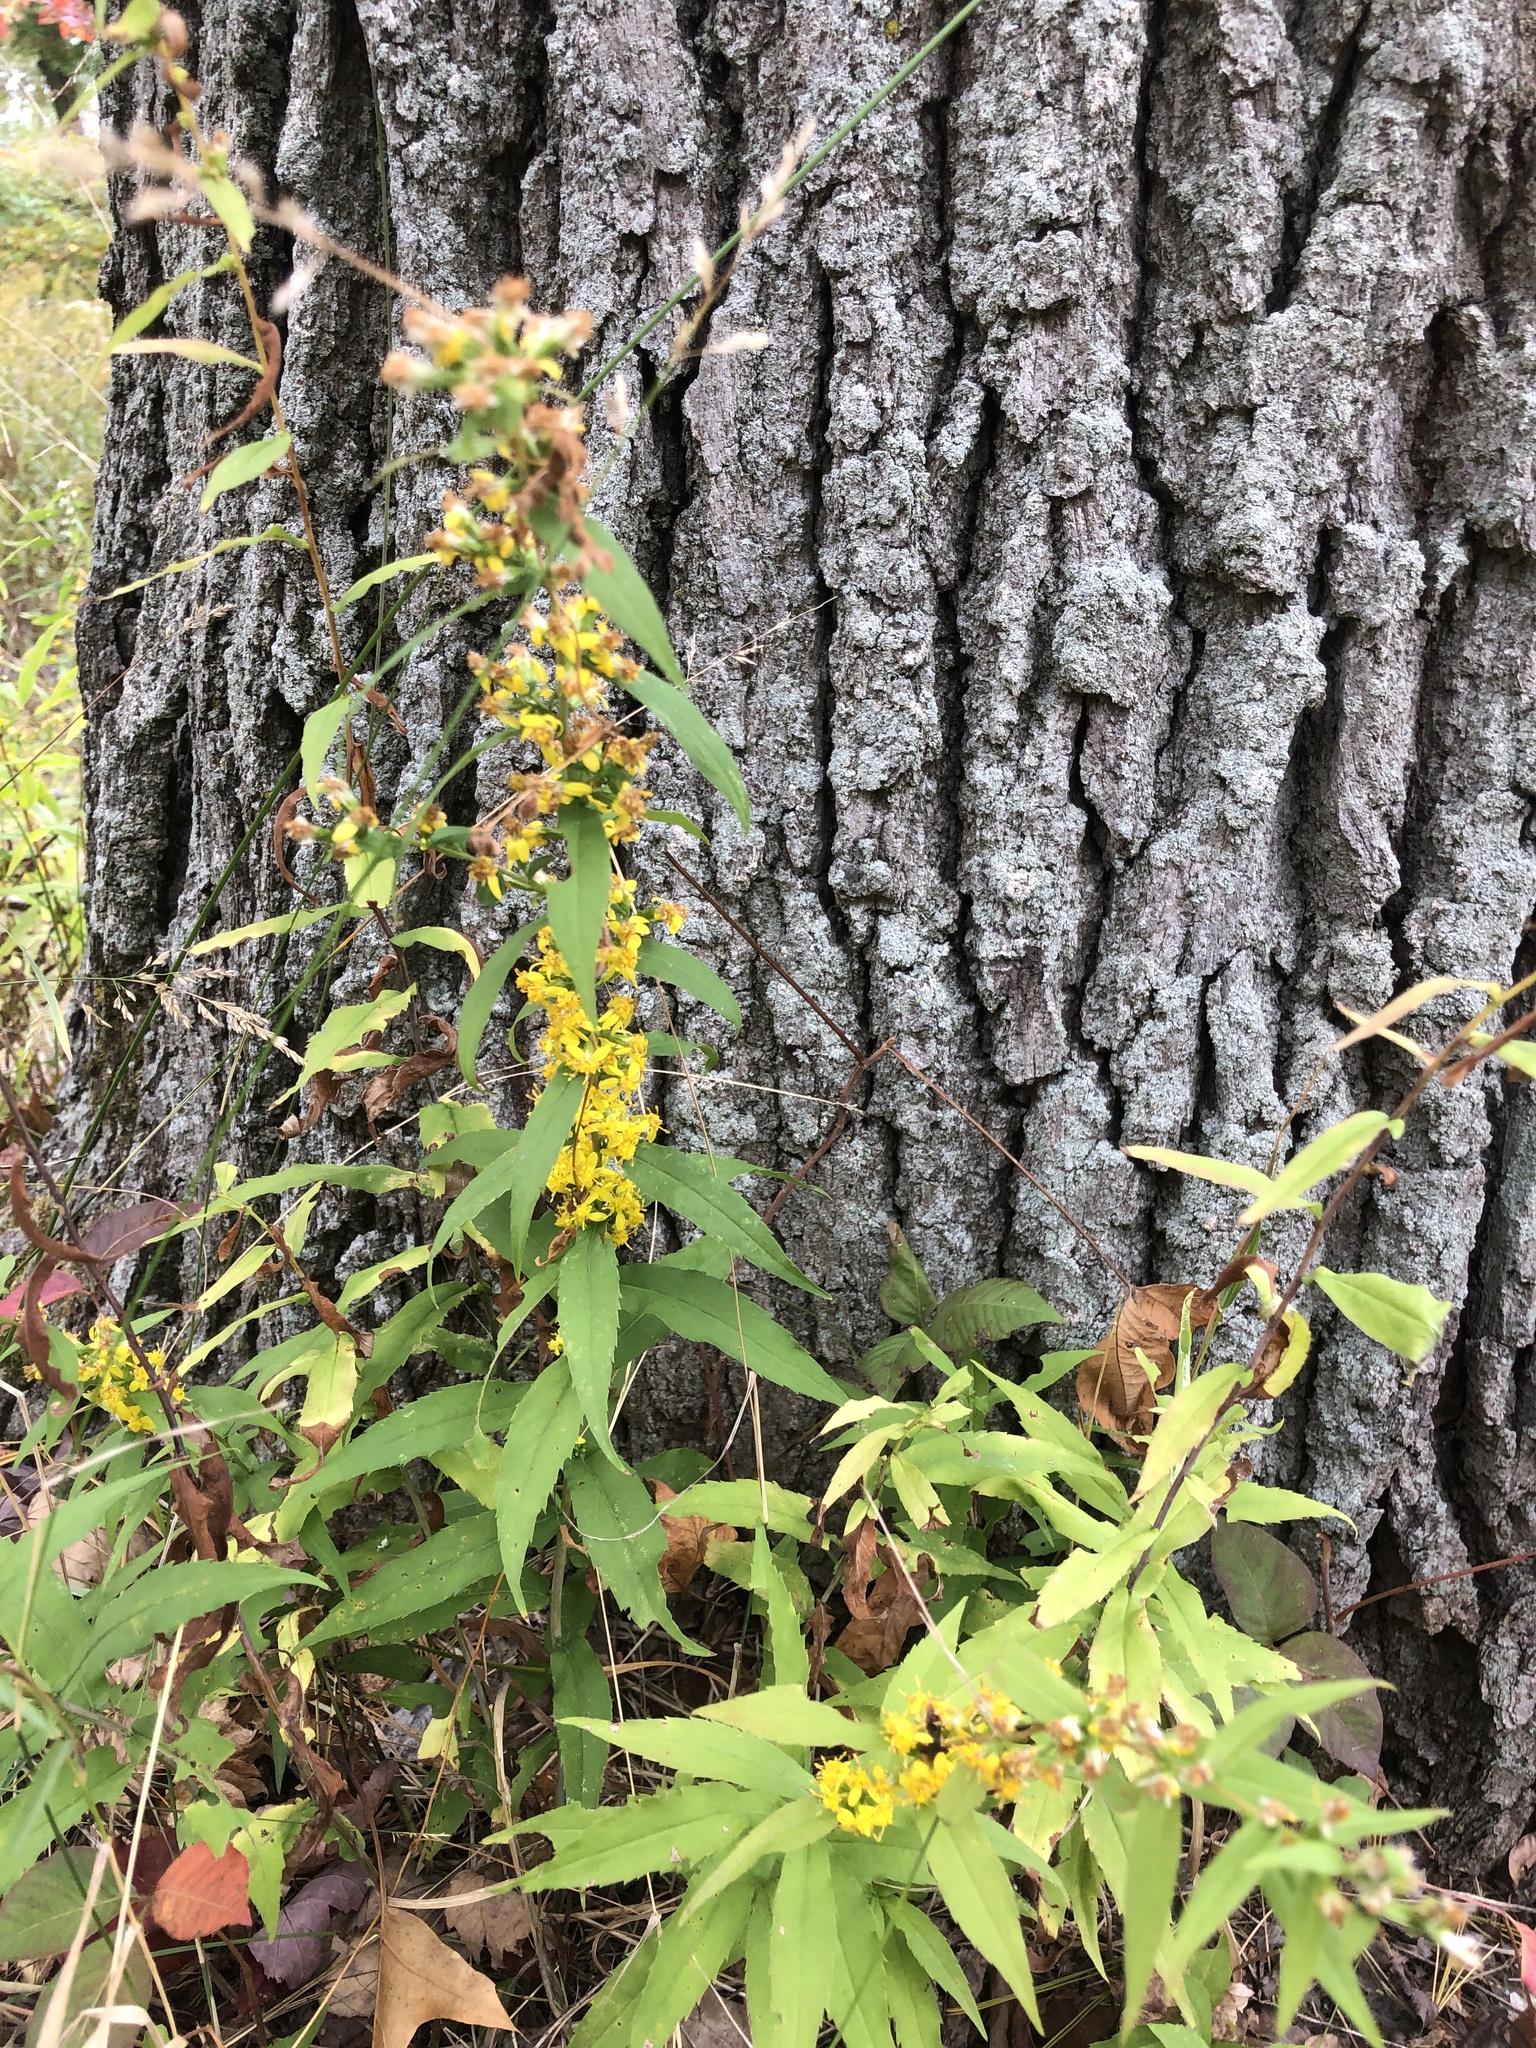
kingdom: Plantae
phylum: Tracheophyta
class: Magnoliopsida
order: Asterales
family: Asteraceae
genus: Solidago
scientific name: Solidago caesia
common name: Woodland goldenrod
